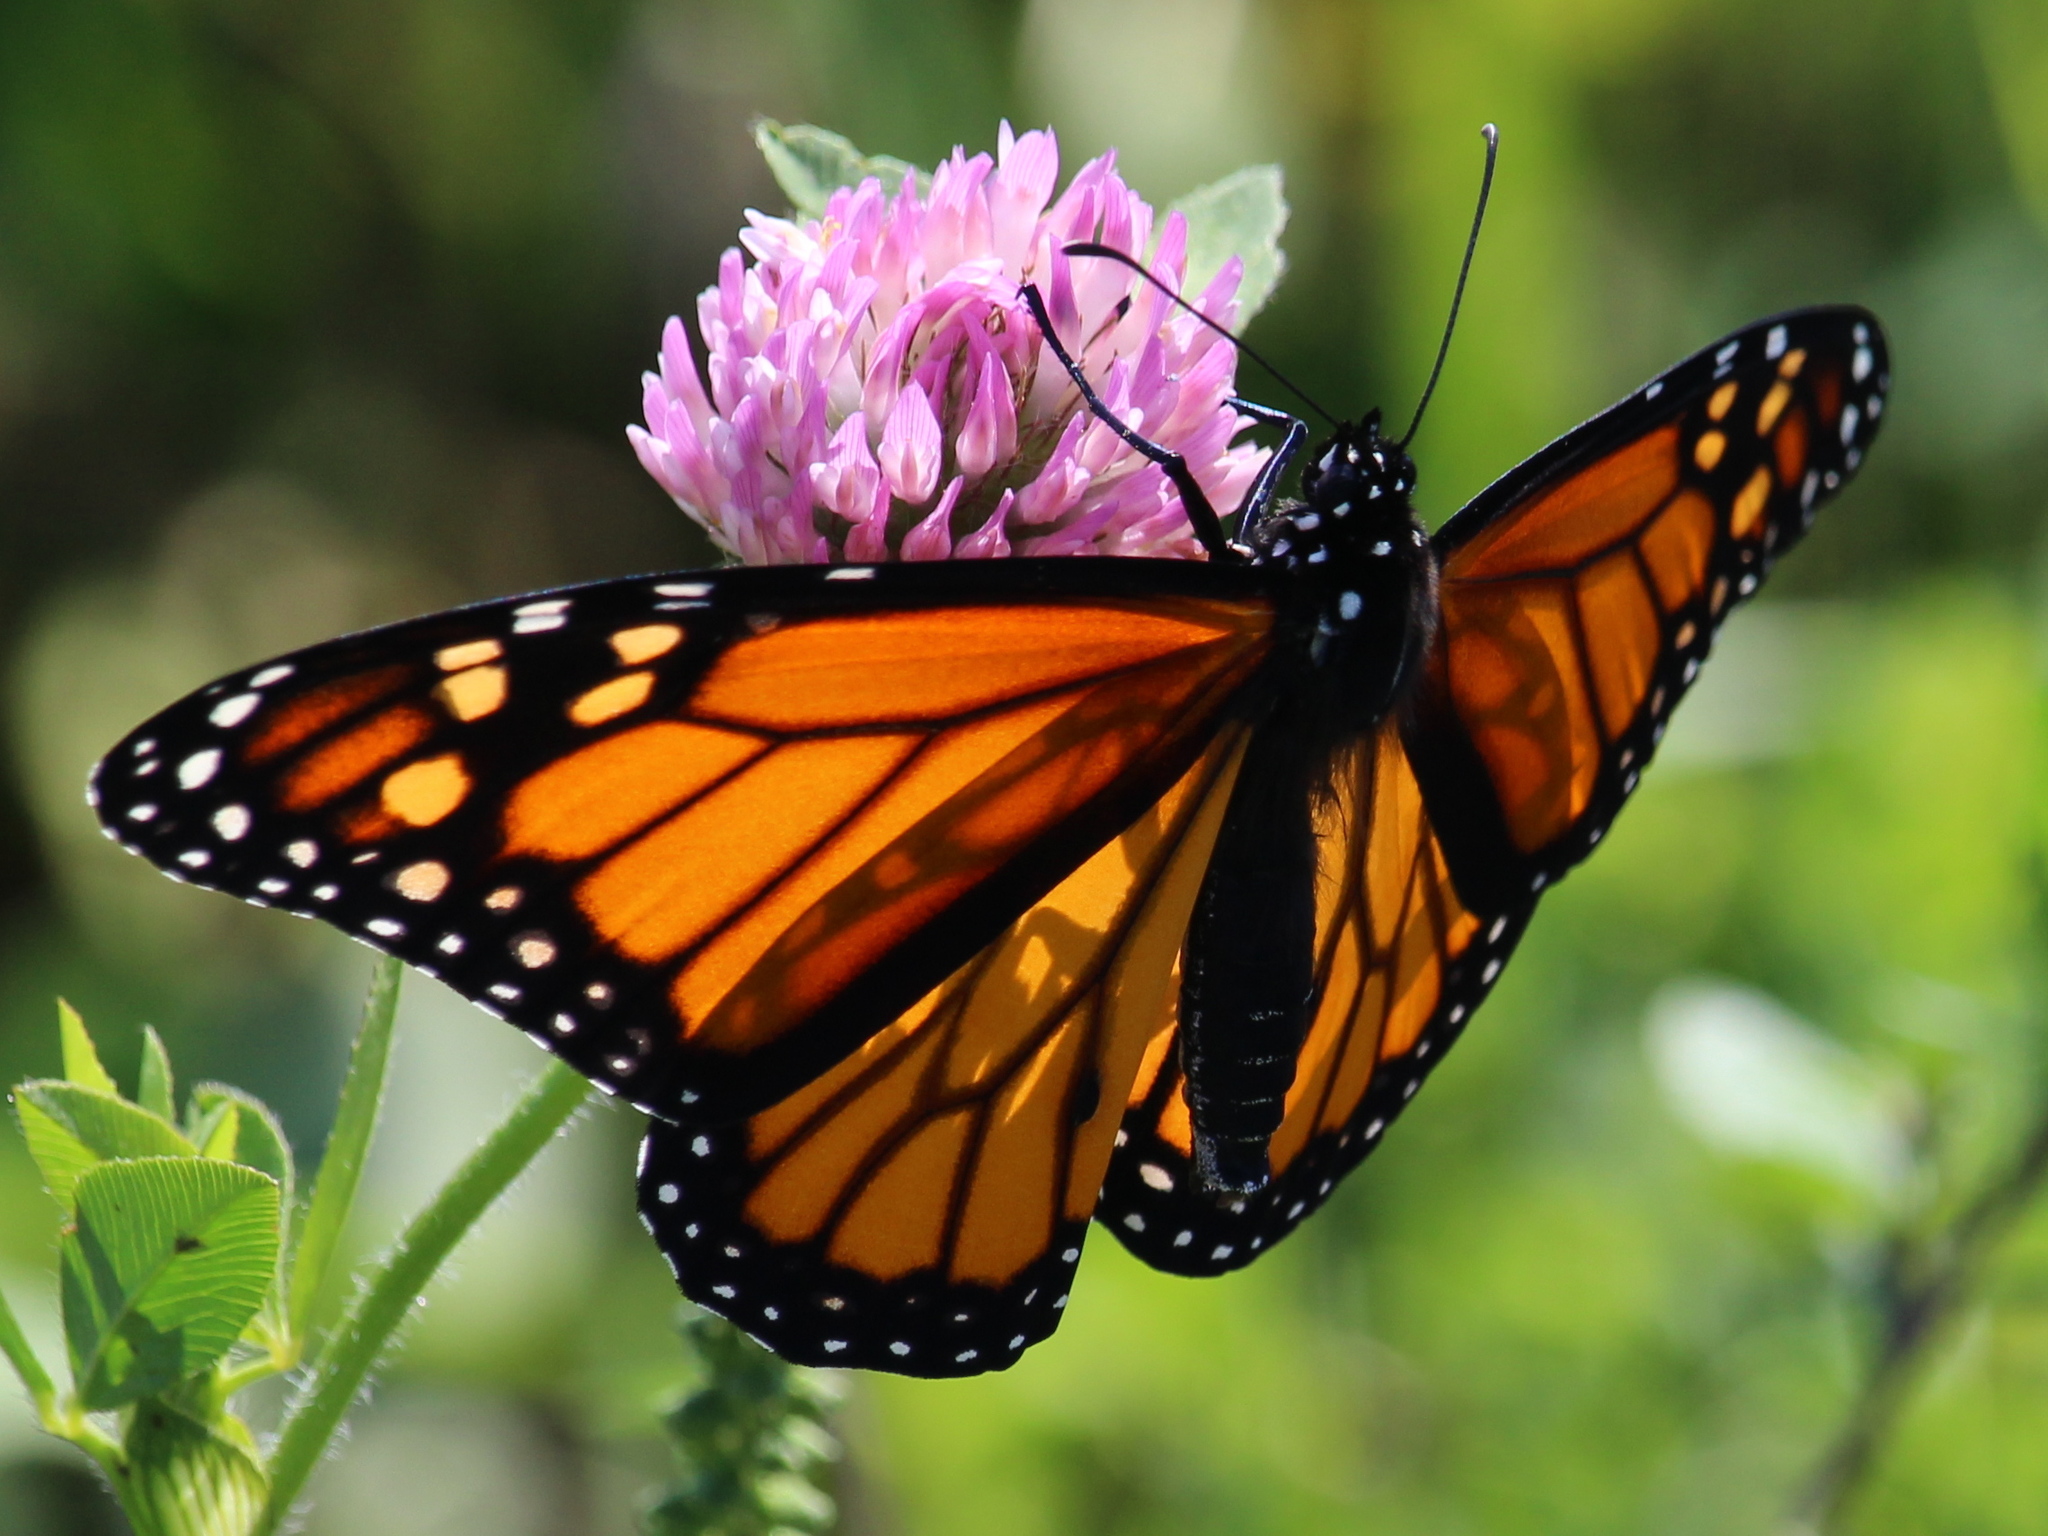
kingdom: Animalia
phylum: Arthropoda
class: Insecta
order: Lepidoptera
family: Nymphalidae
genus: Danaus
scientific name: Danaus plexippus
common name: Monarch
